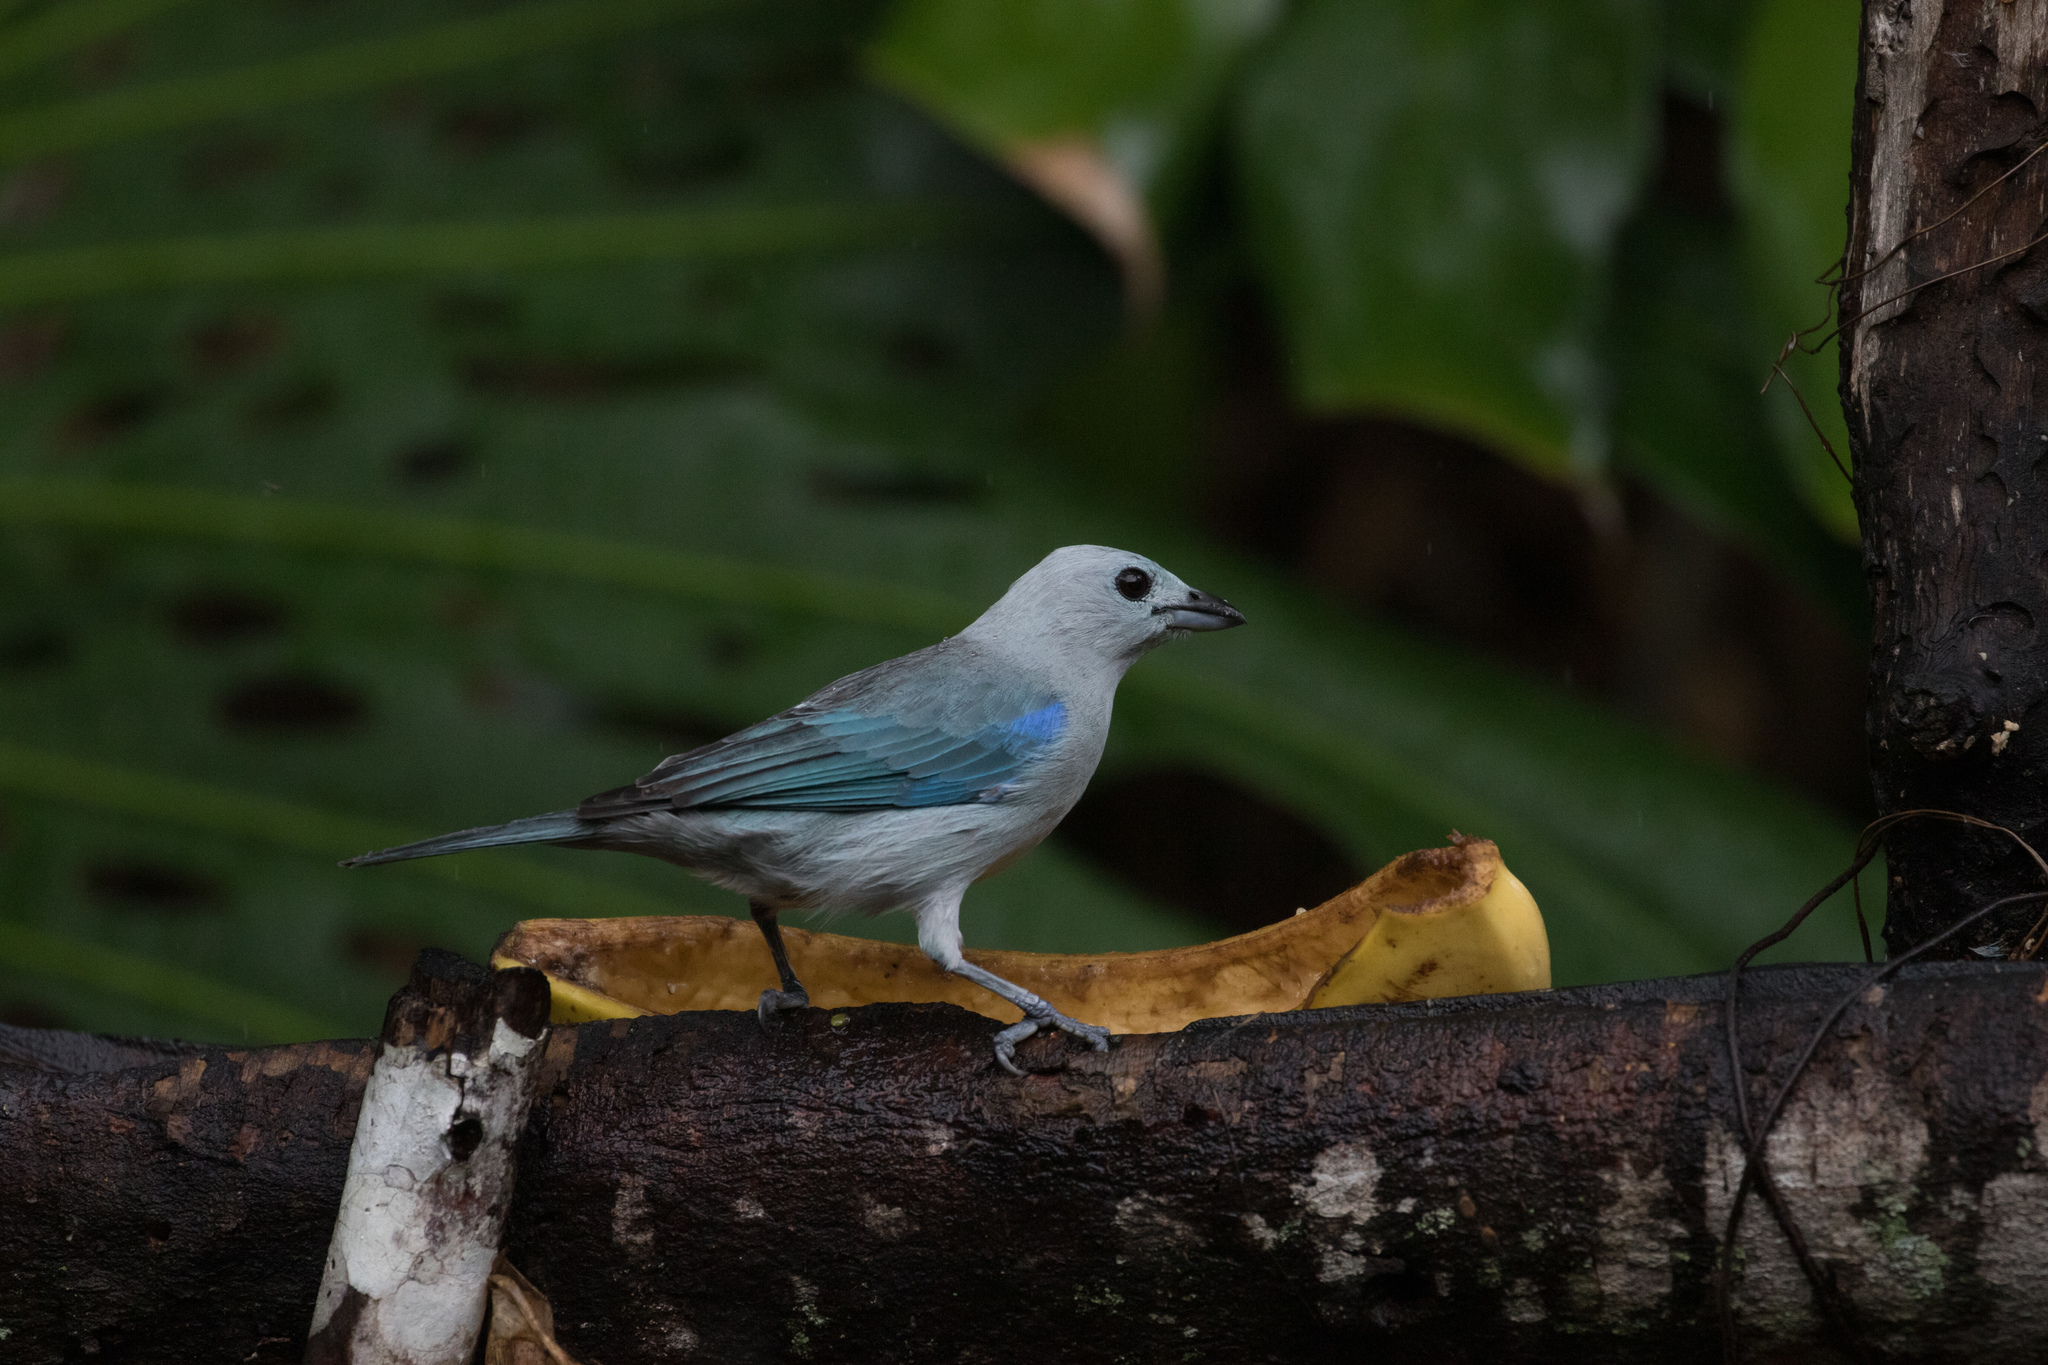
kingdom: Animalia
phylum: Chordata
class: Aves
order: Passeriformes
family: Thraupidae
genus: Thraupis
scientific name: Thraupis episcopus
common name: Blue-grey tanager
